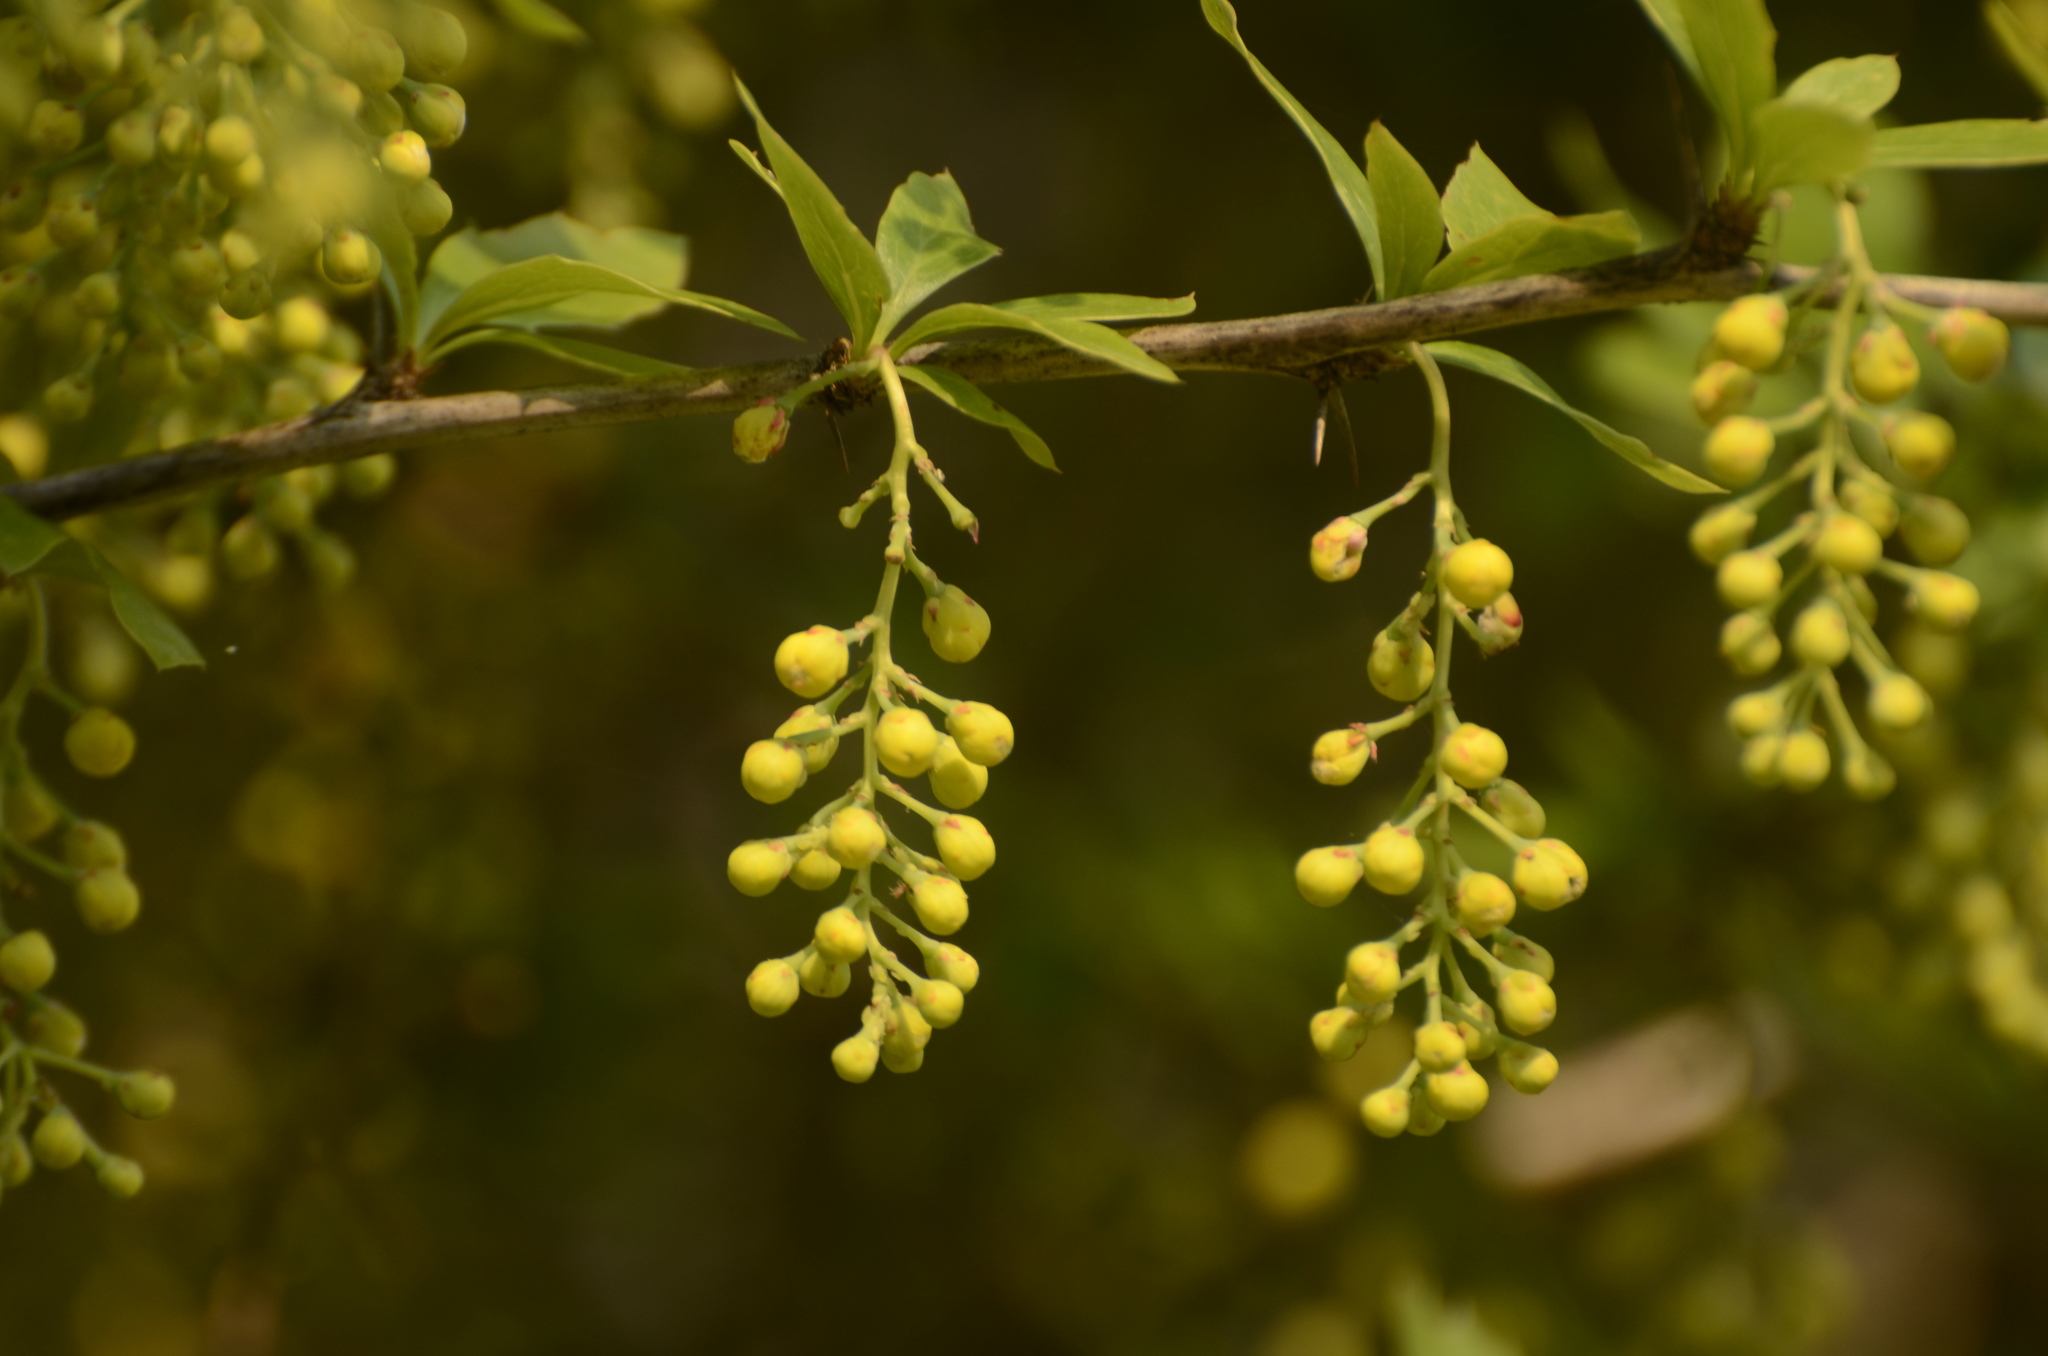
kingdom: Plantae
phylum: Tracheophyta
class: Magnoliopsida
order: Ranunculales
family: Berberidaceae
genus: Berberis
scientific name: Berberis aristata
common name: Indian barberry
